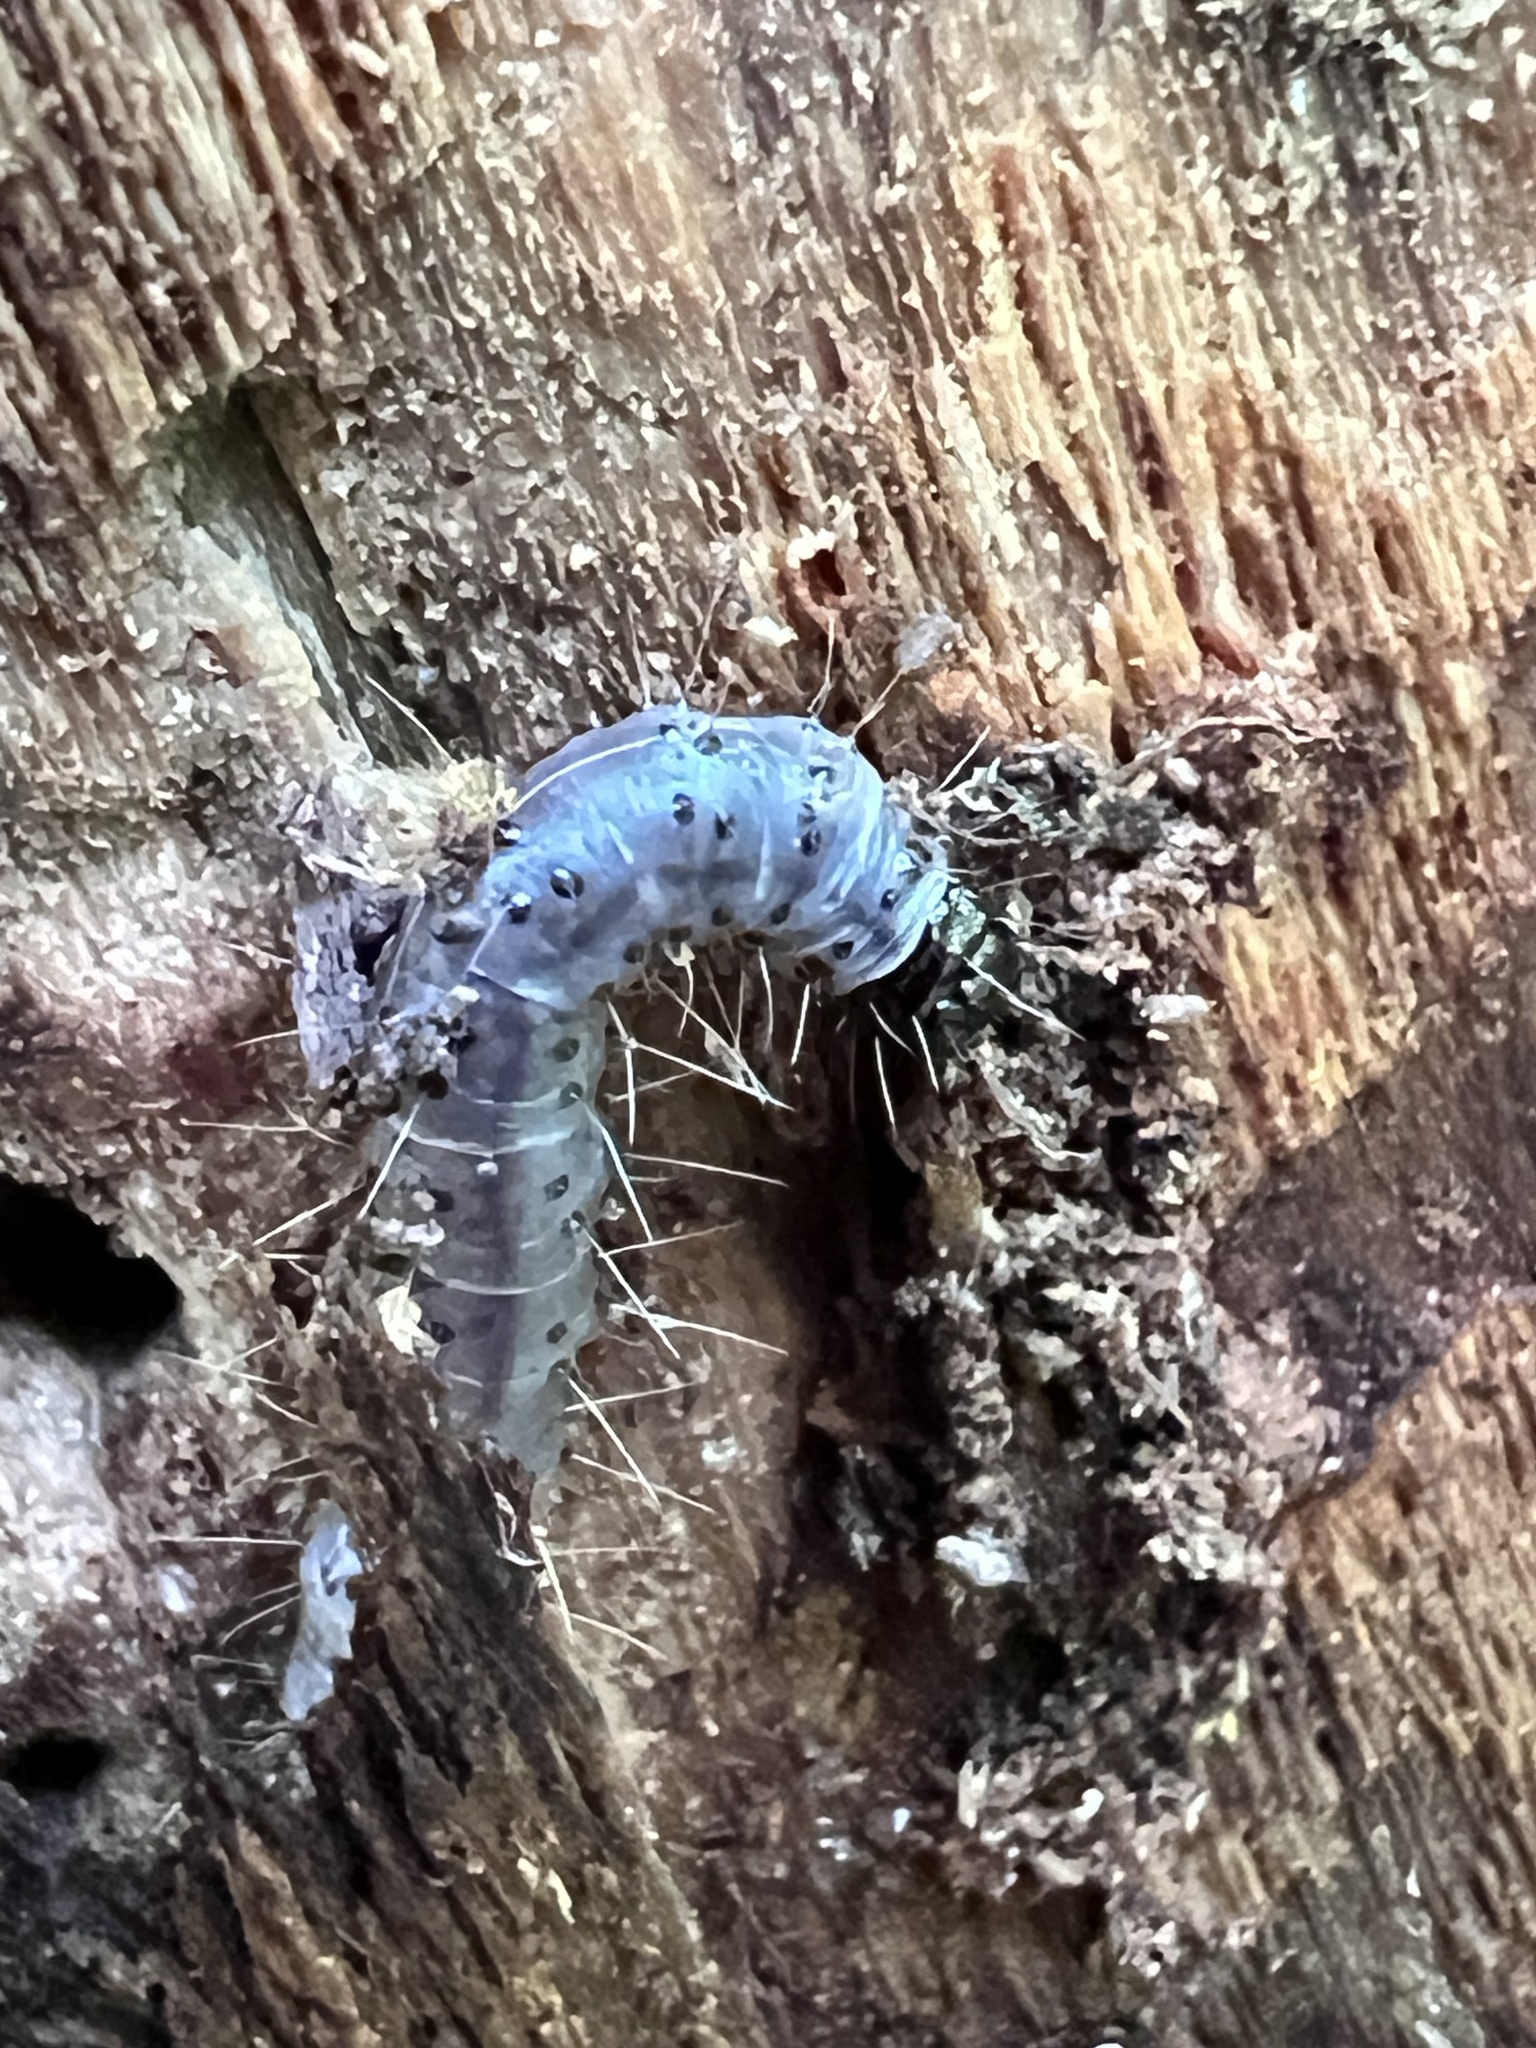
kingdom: Animalia
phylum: Arthropoda
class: Insecta
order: Lepidoptera
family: Erebidae
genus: Scolecocampa
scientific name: Scolecocampa liburna
